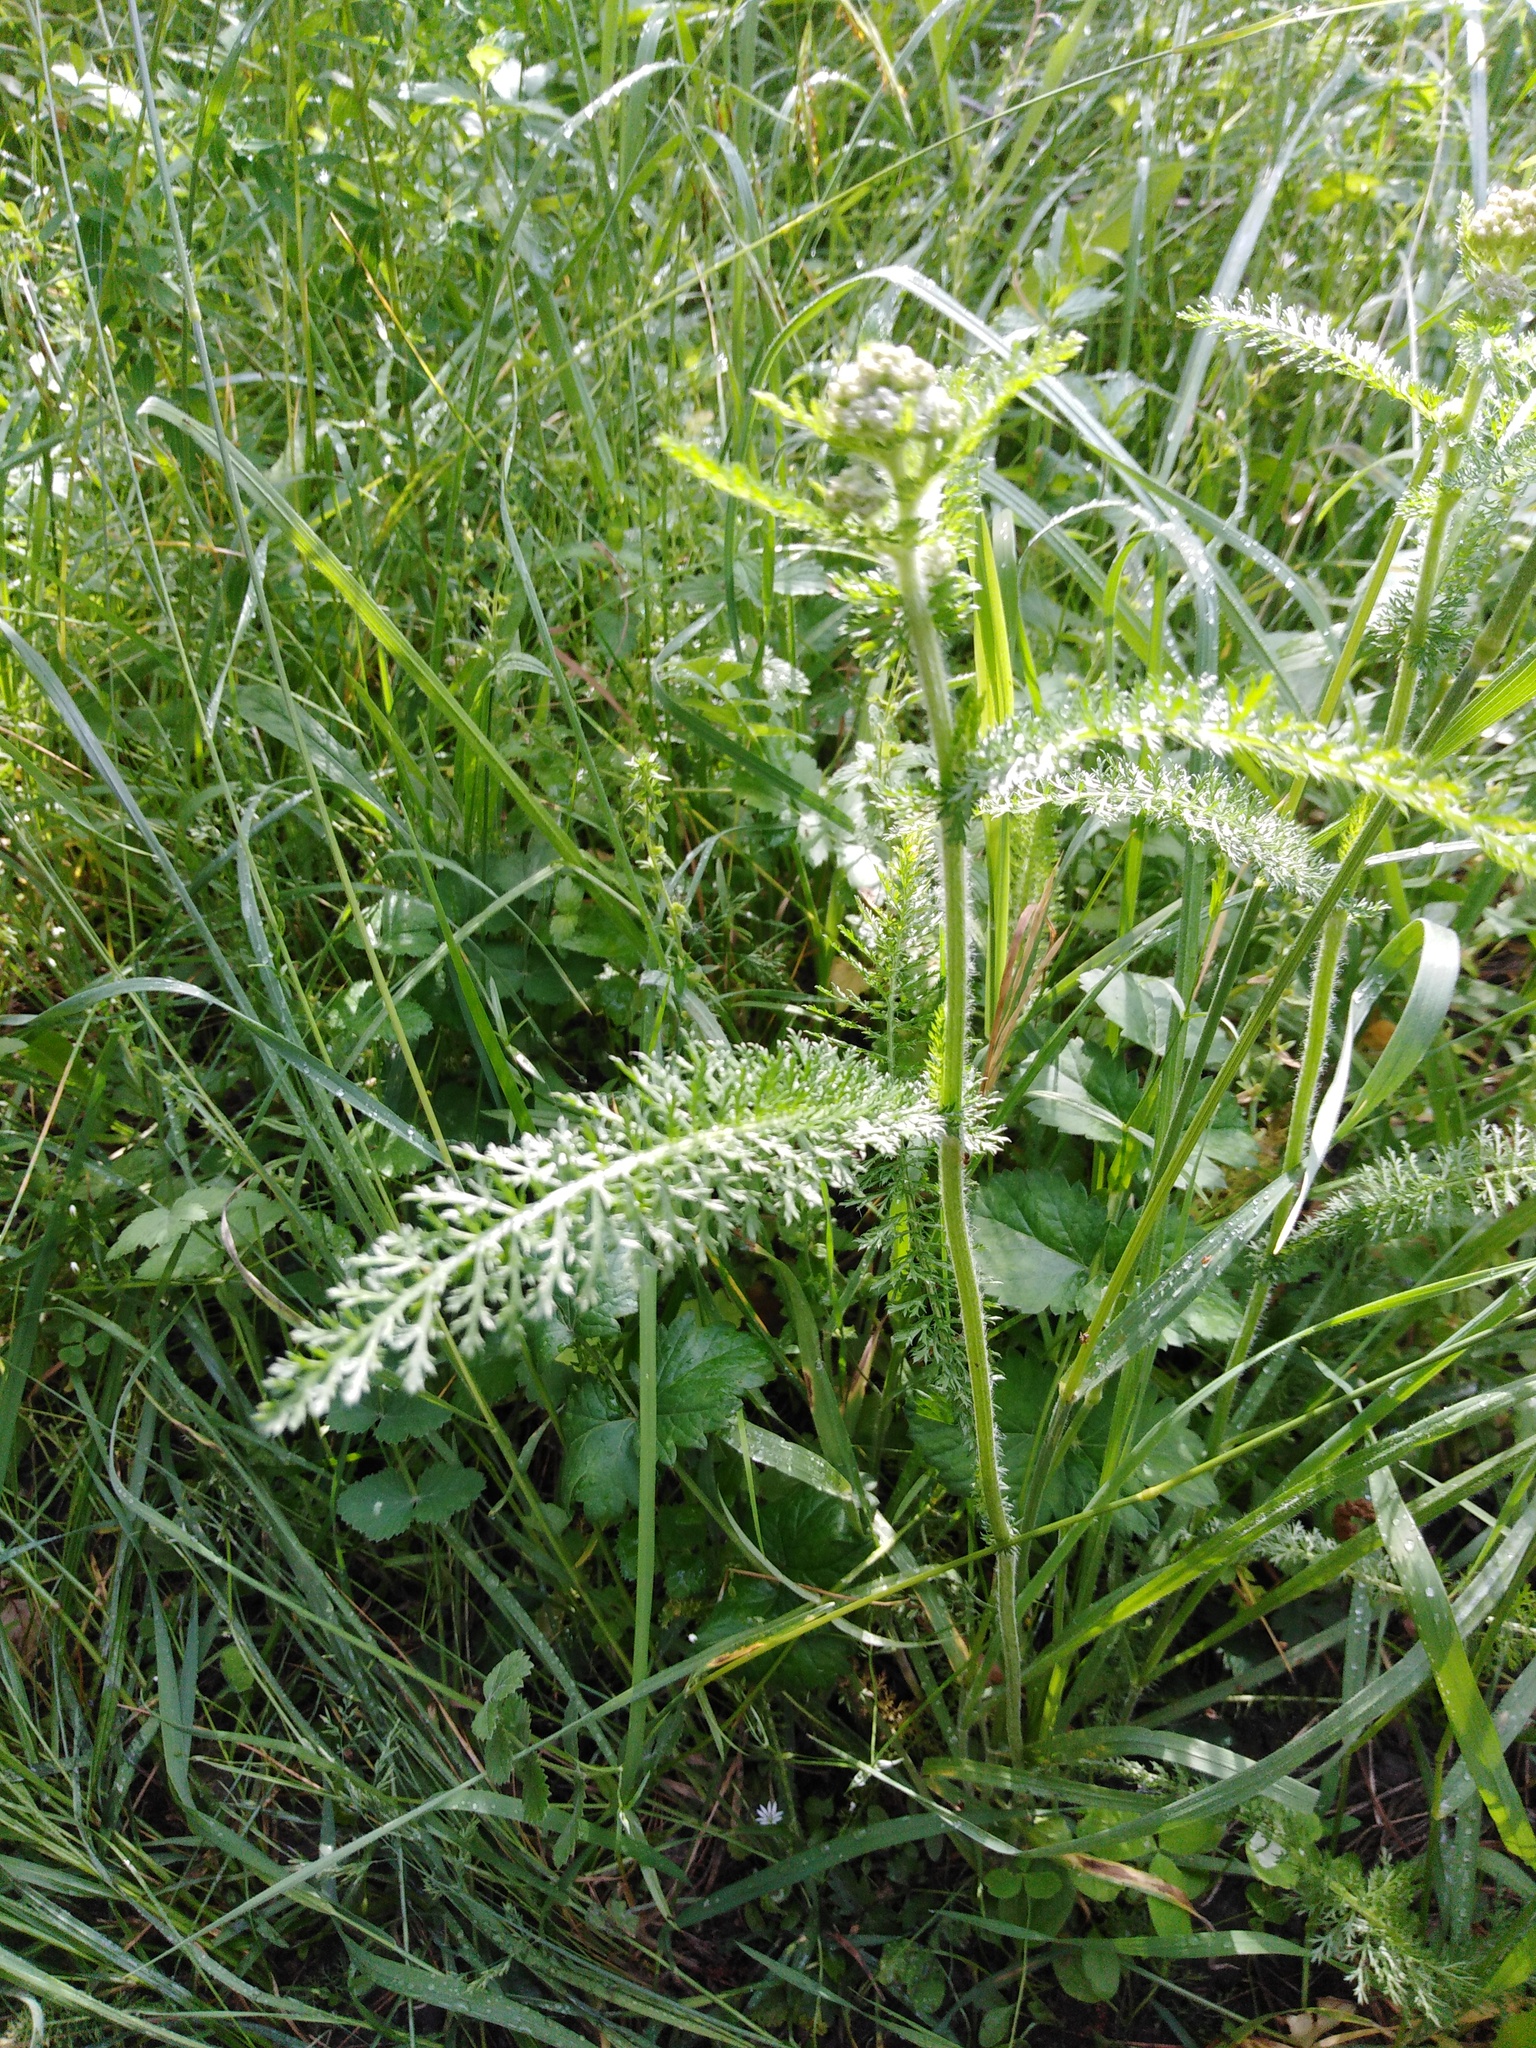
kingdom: Plantae
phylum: Tracheophyta
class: Magnoliopsida
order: Asterales
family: Asteraceae
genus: Achillea
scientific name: Achillea millefolium
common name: Yarrow
